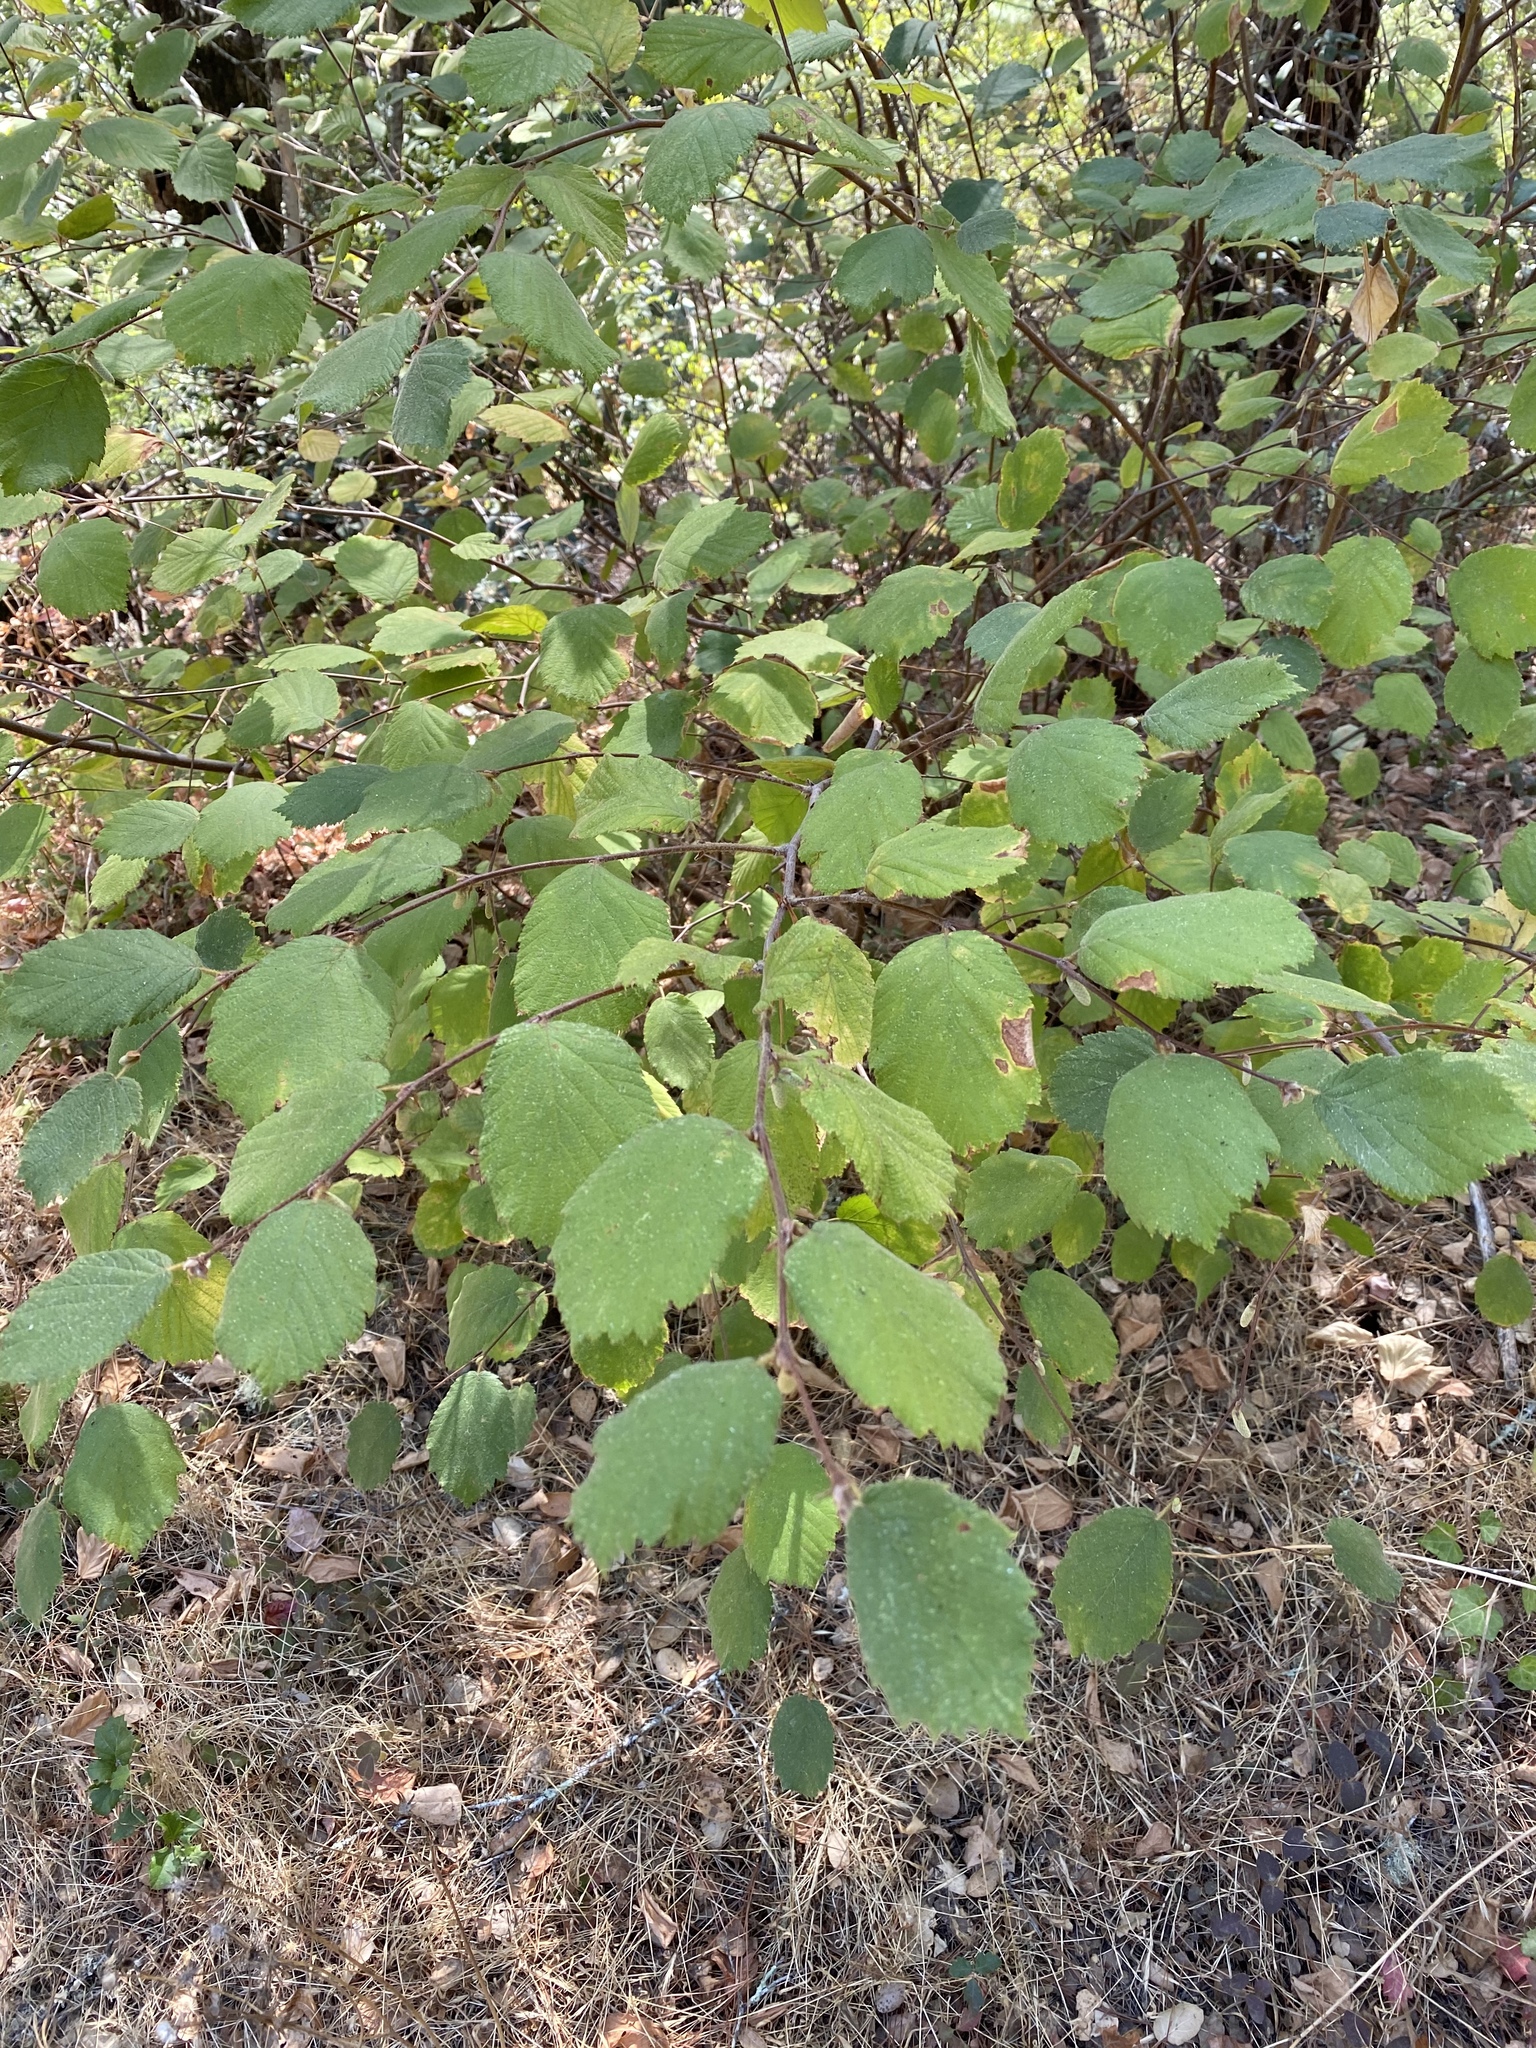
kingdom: Plantae
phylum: Tracheophyta
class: Magnoliopsida
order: Fagales
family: Betulaceae
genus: Corylus
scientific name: Corylus cornuta
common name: Beaked hazel
